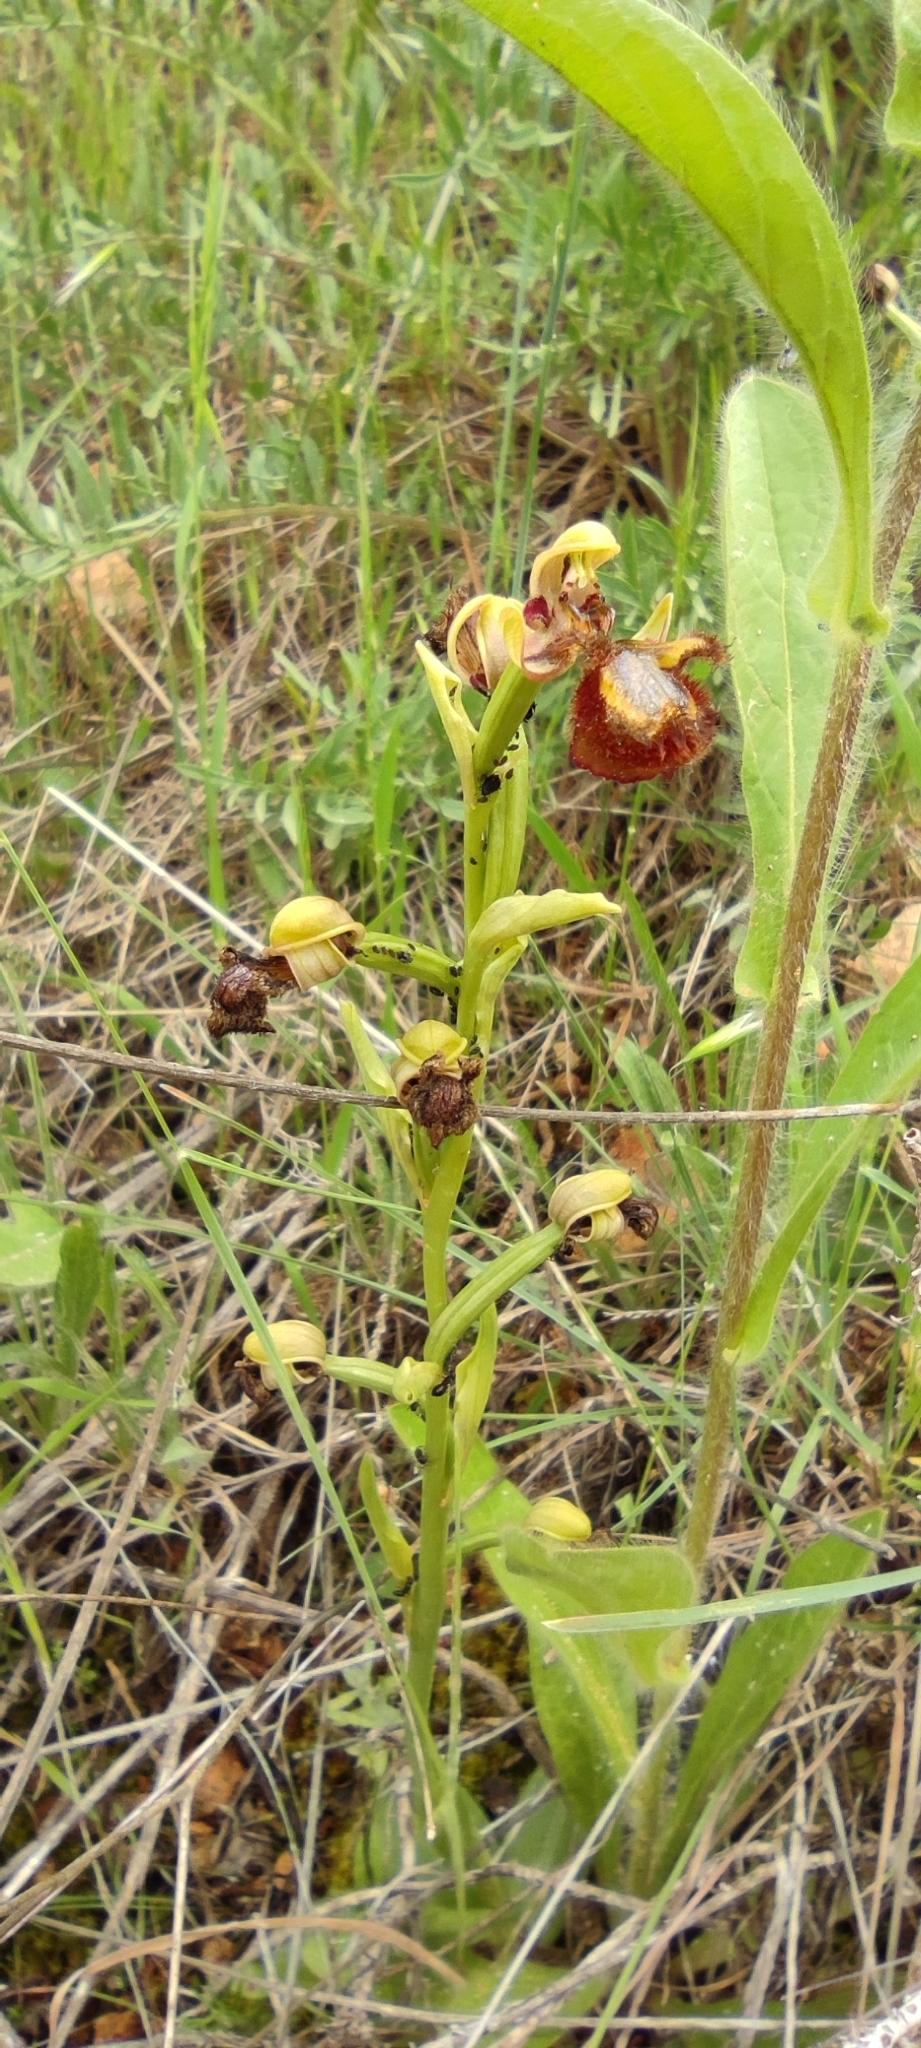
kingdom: Plantae
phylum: Tracheophyta
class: Liliopsida
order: Asparagales
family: Orchidaceae
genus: Ophrys
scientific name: Ophrys speculum
